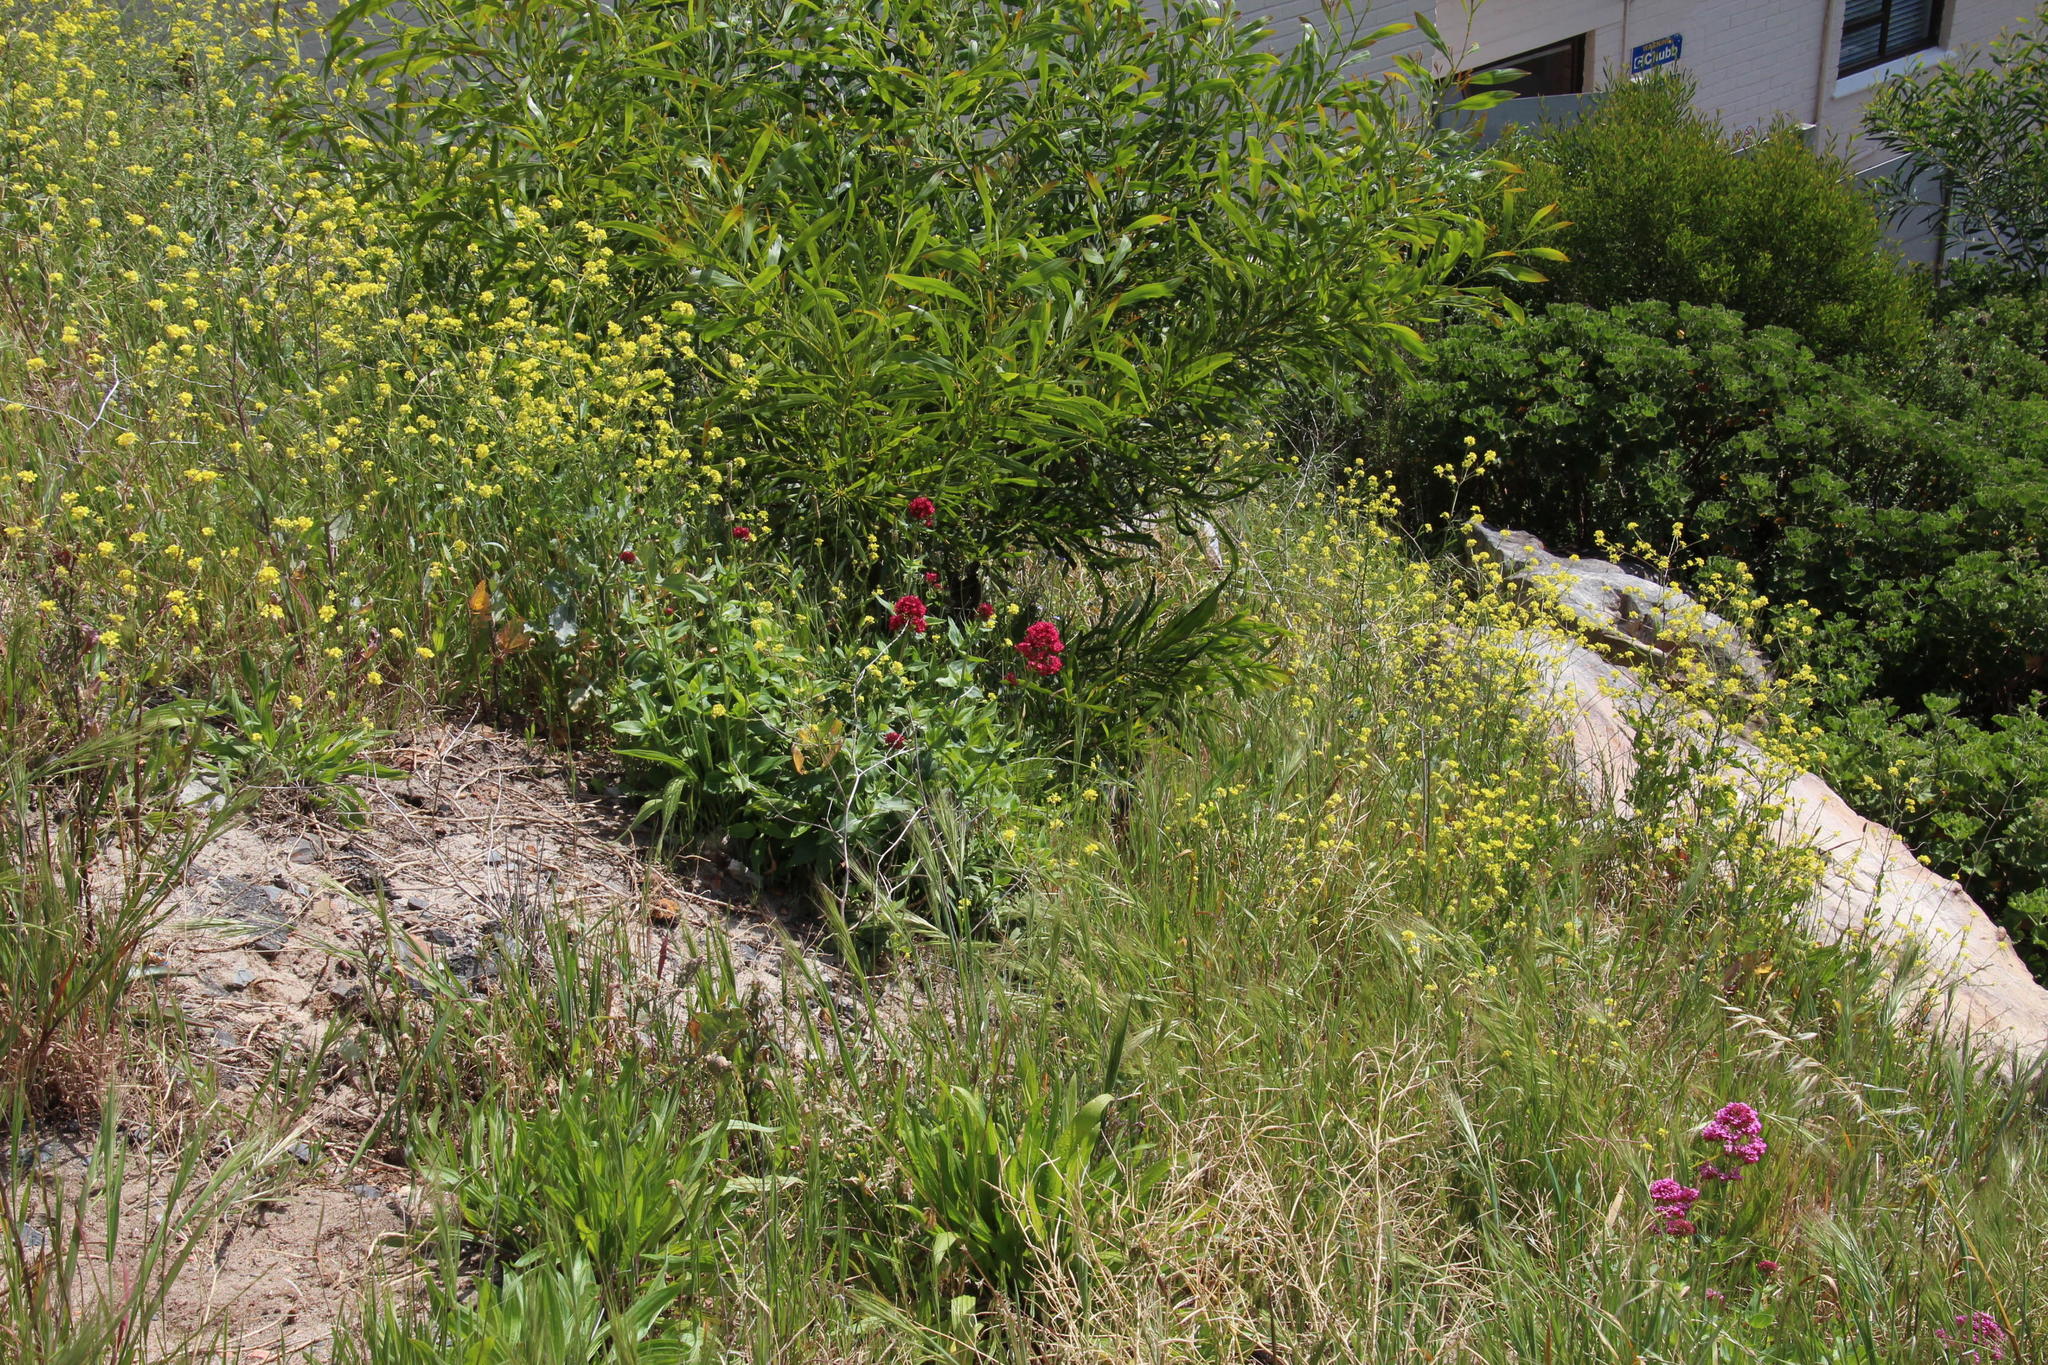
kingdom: Plantae
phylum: Tracheophyta
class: Magnoliopsida
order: Dipsacales
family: Caprifoliaceae
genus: Centranthus
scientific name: Centranthus ruber
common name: Red valerian
